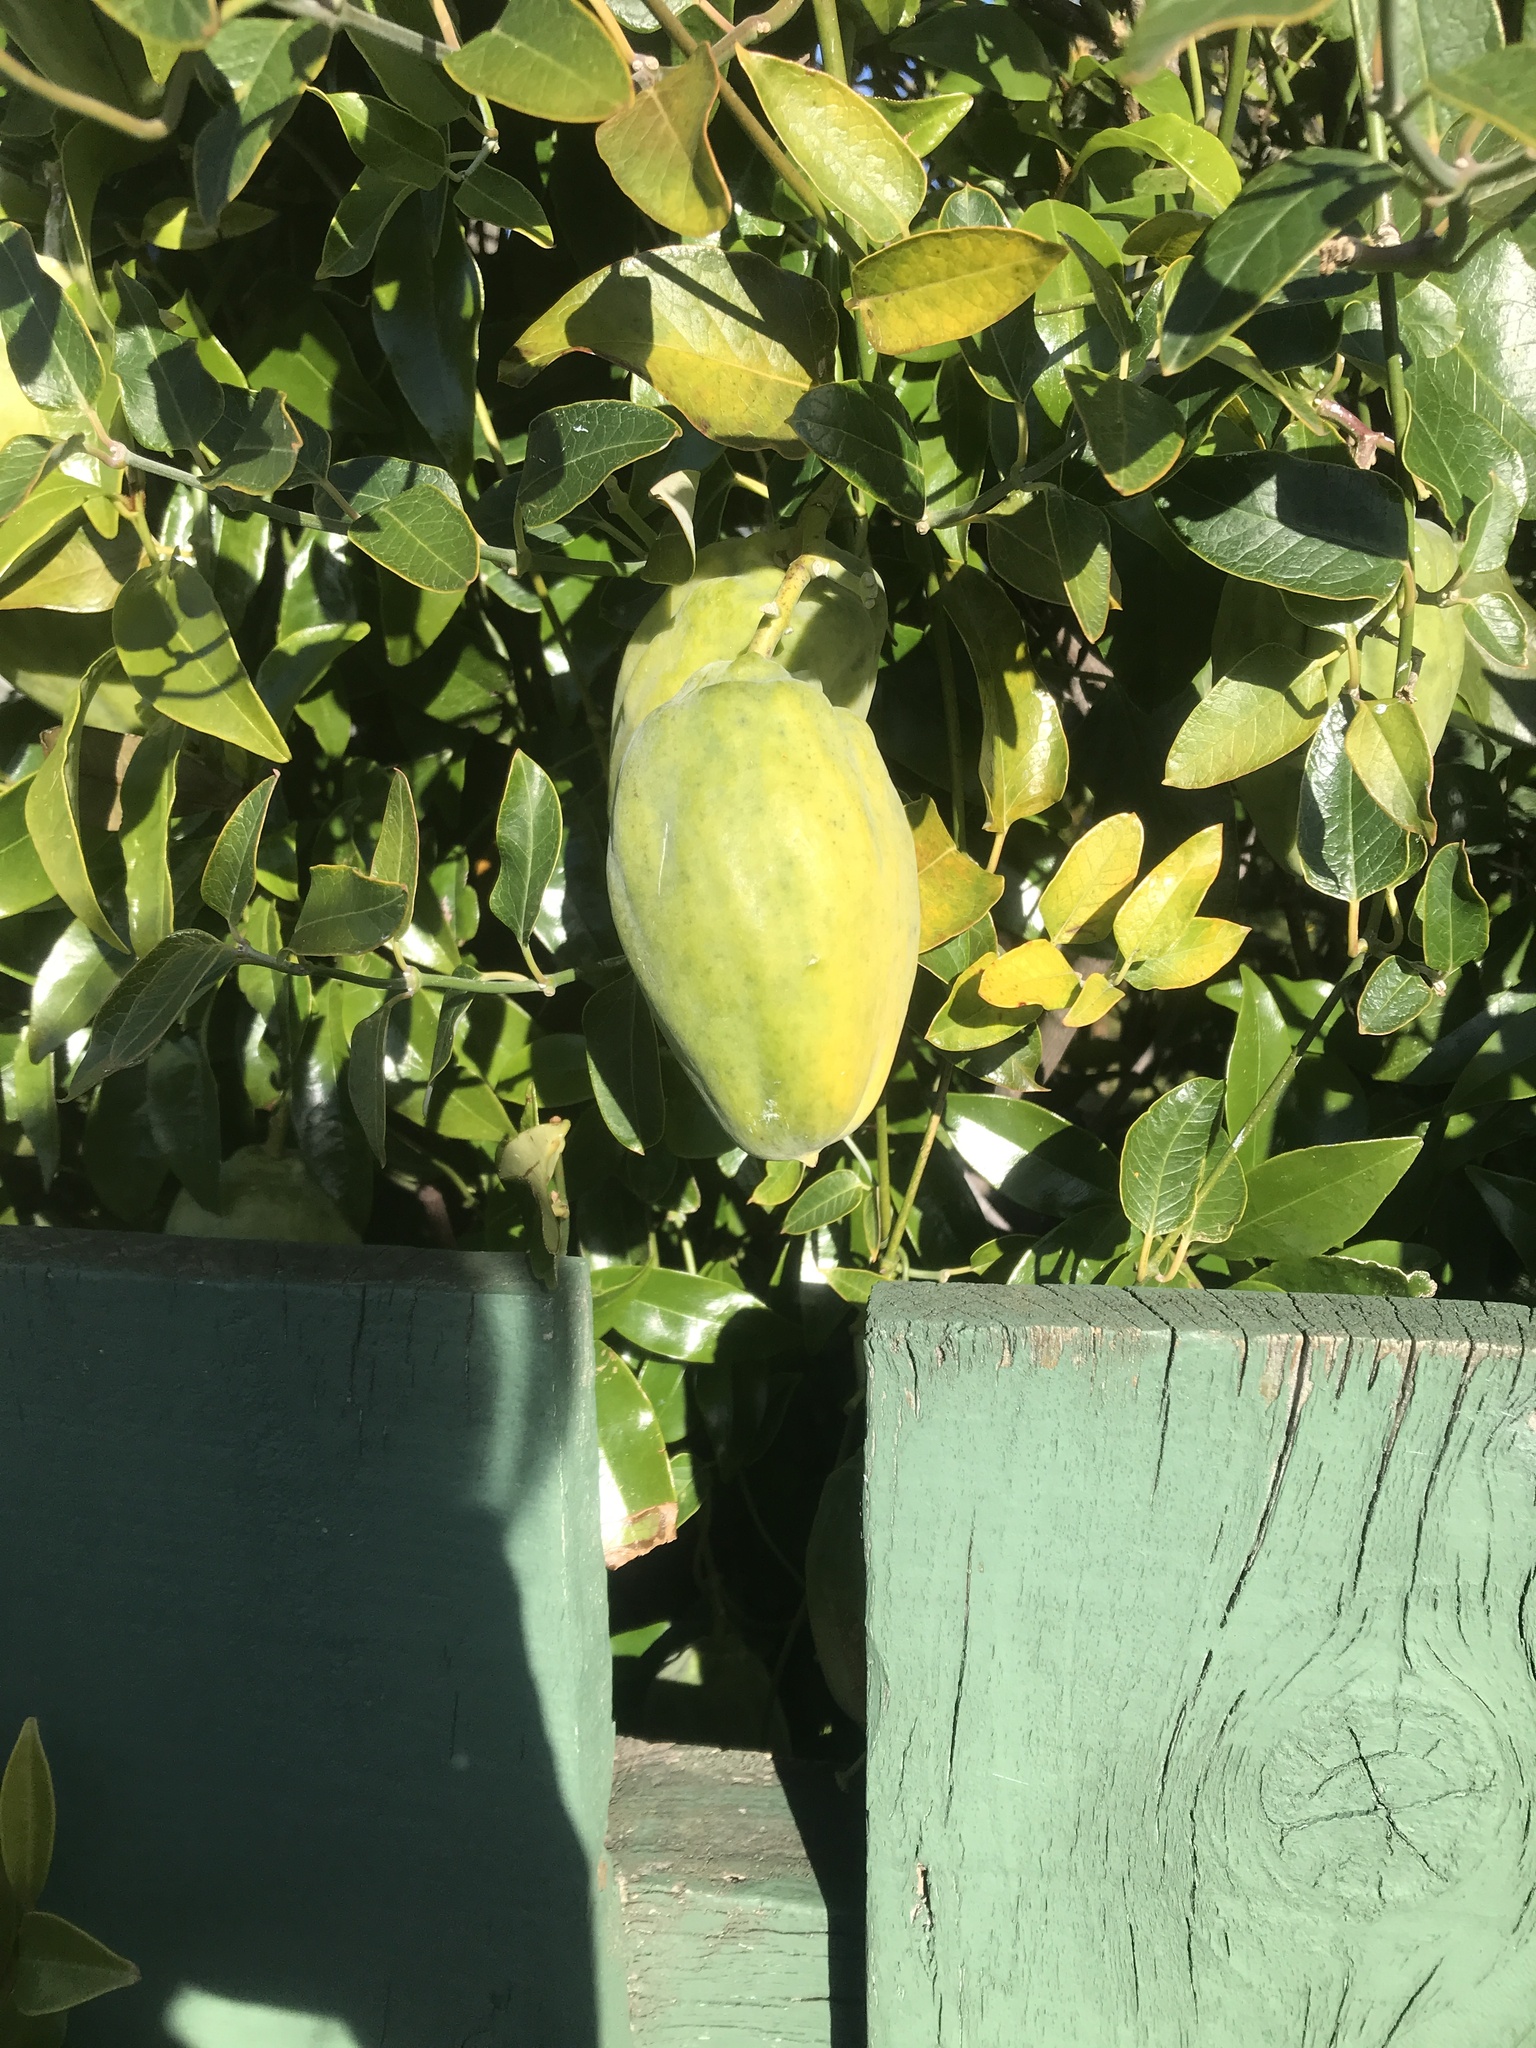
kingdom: Plantae
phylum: Tracheophyta
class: Magnoliopsida
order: Gentianales
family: Apocynaceae
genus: Araujia
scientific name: Araujia sericifera
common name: White bladderflower
